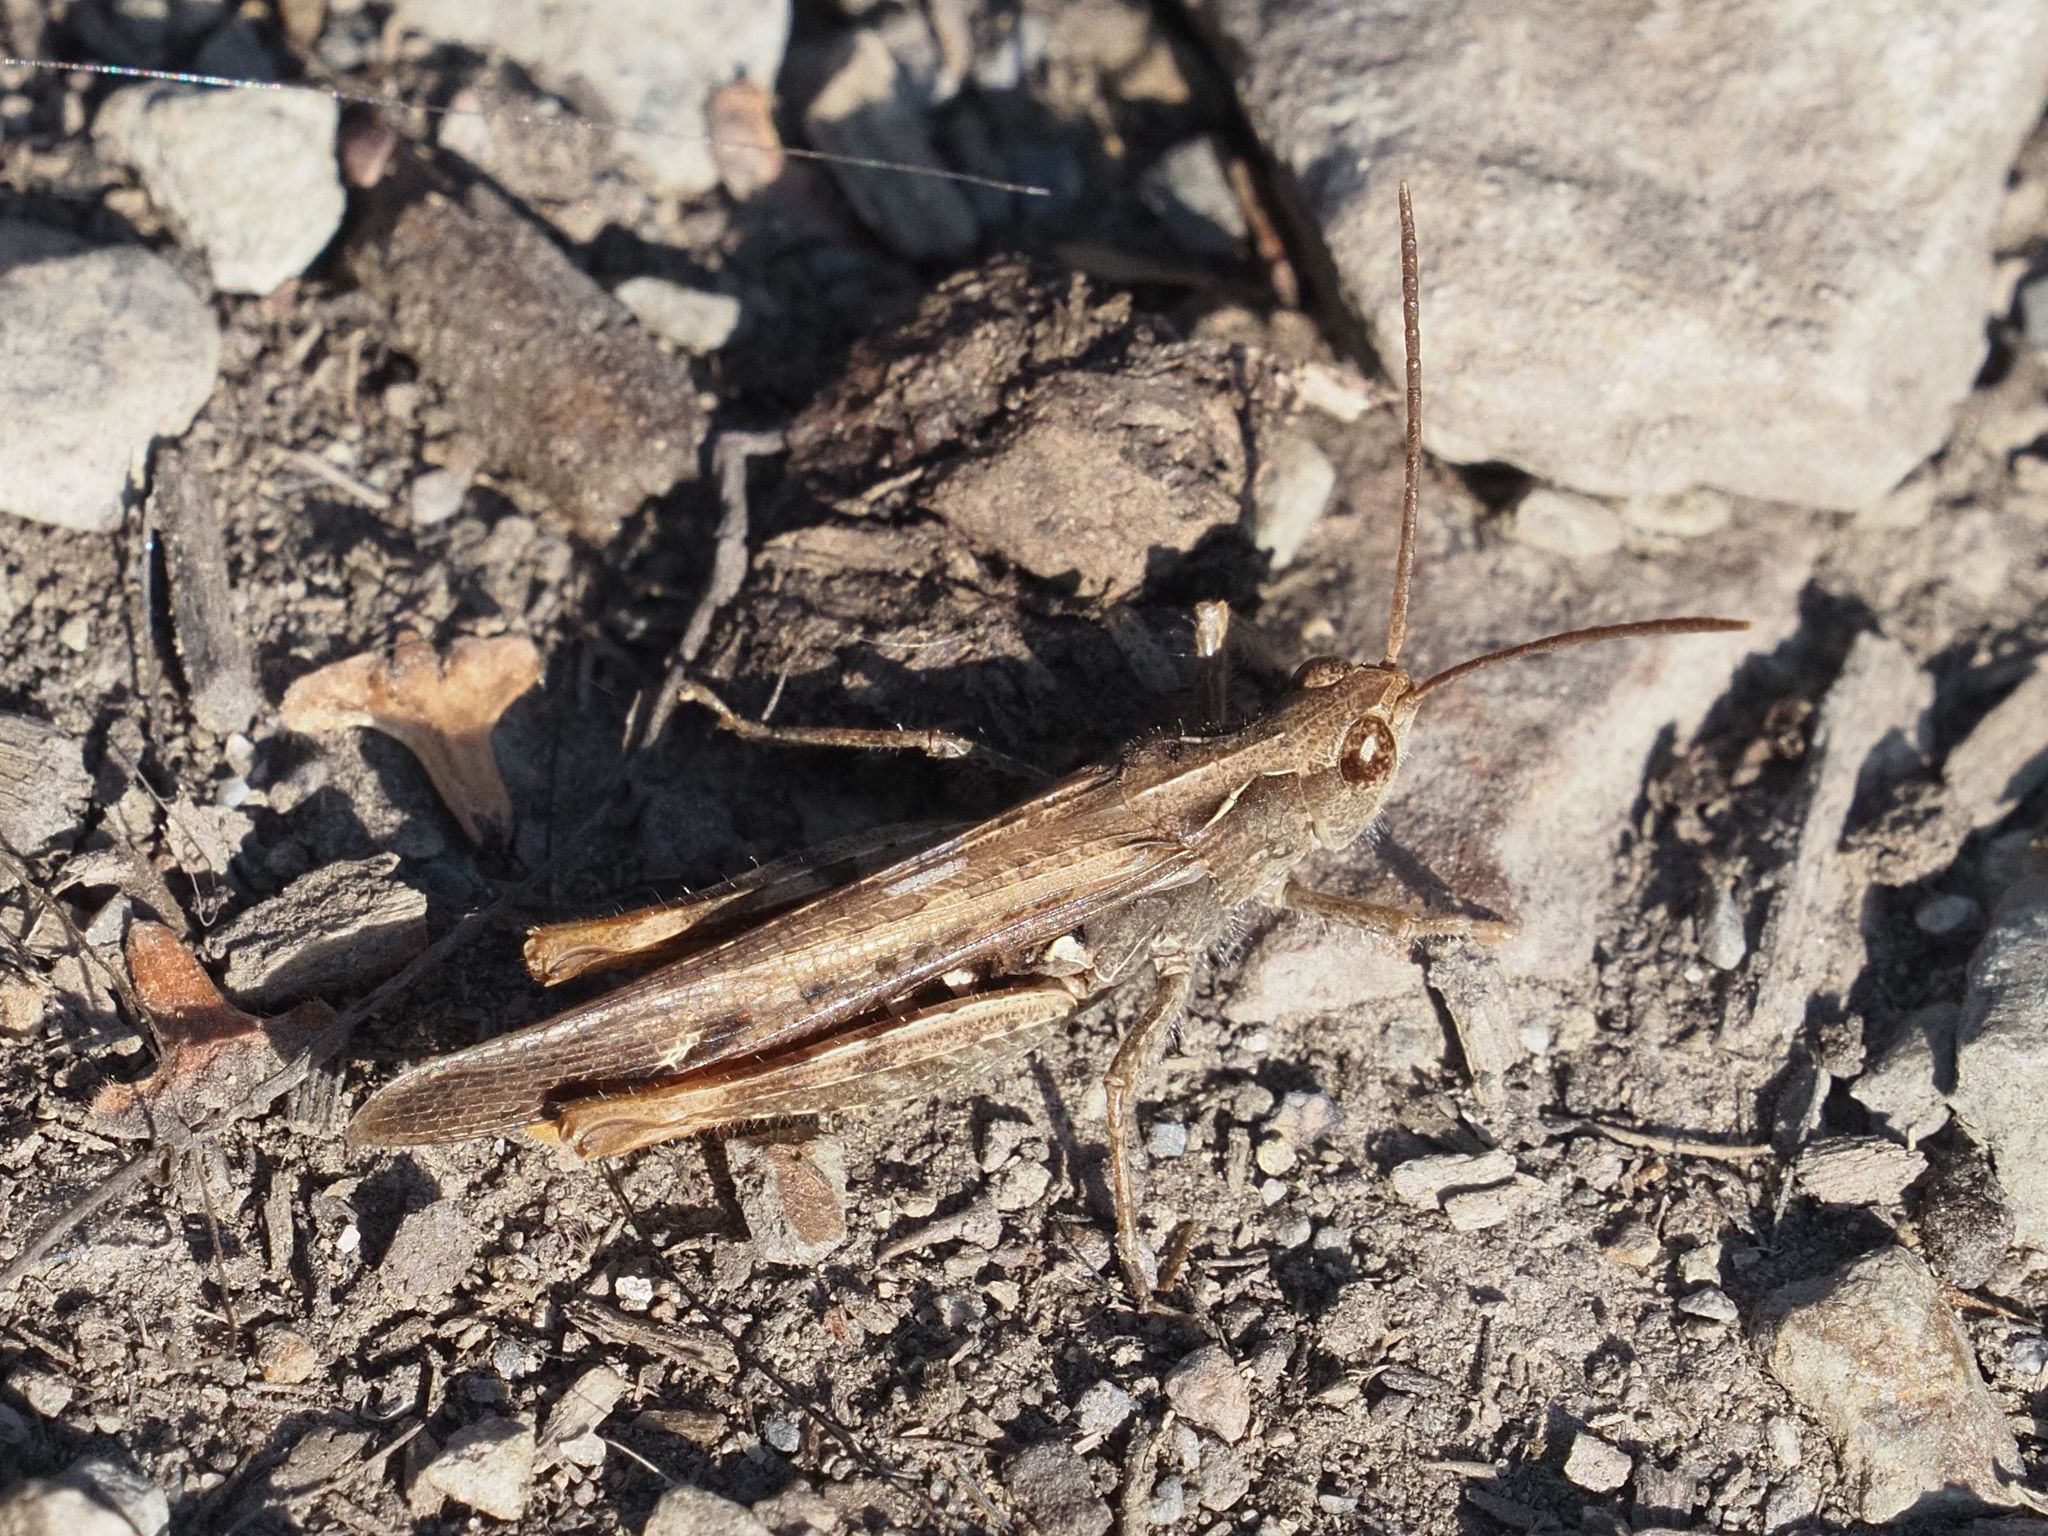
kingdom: Animalia
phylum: Arthropoda
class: Insecta
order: Orthoptera
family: Acrididae
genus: Chorthippus
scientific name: Chorthippus brunneus
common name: Field grasshopper
